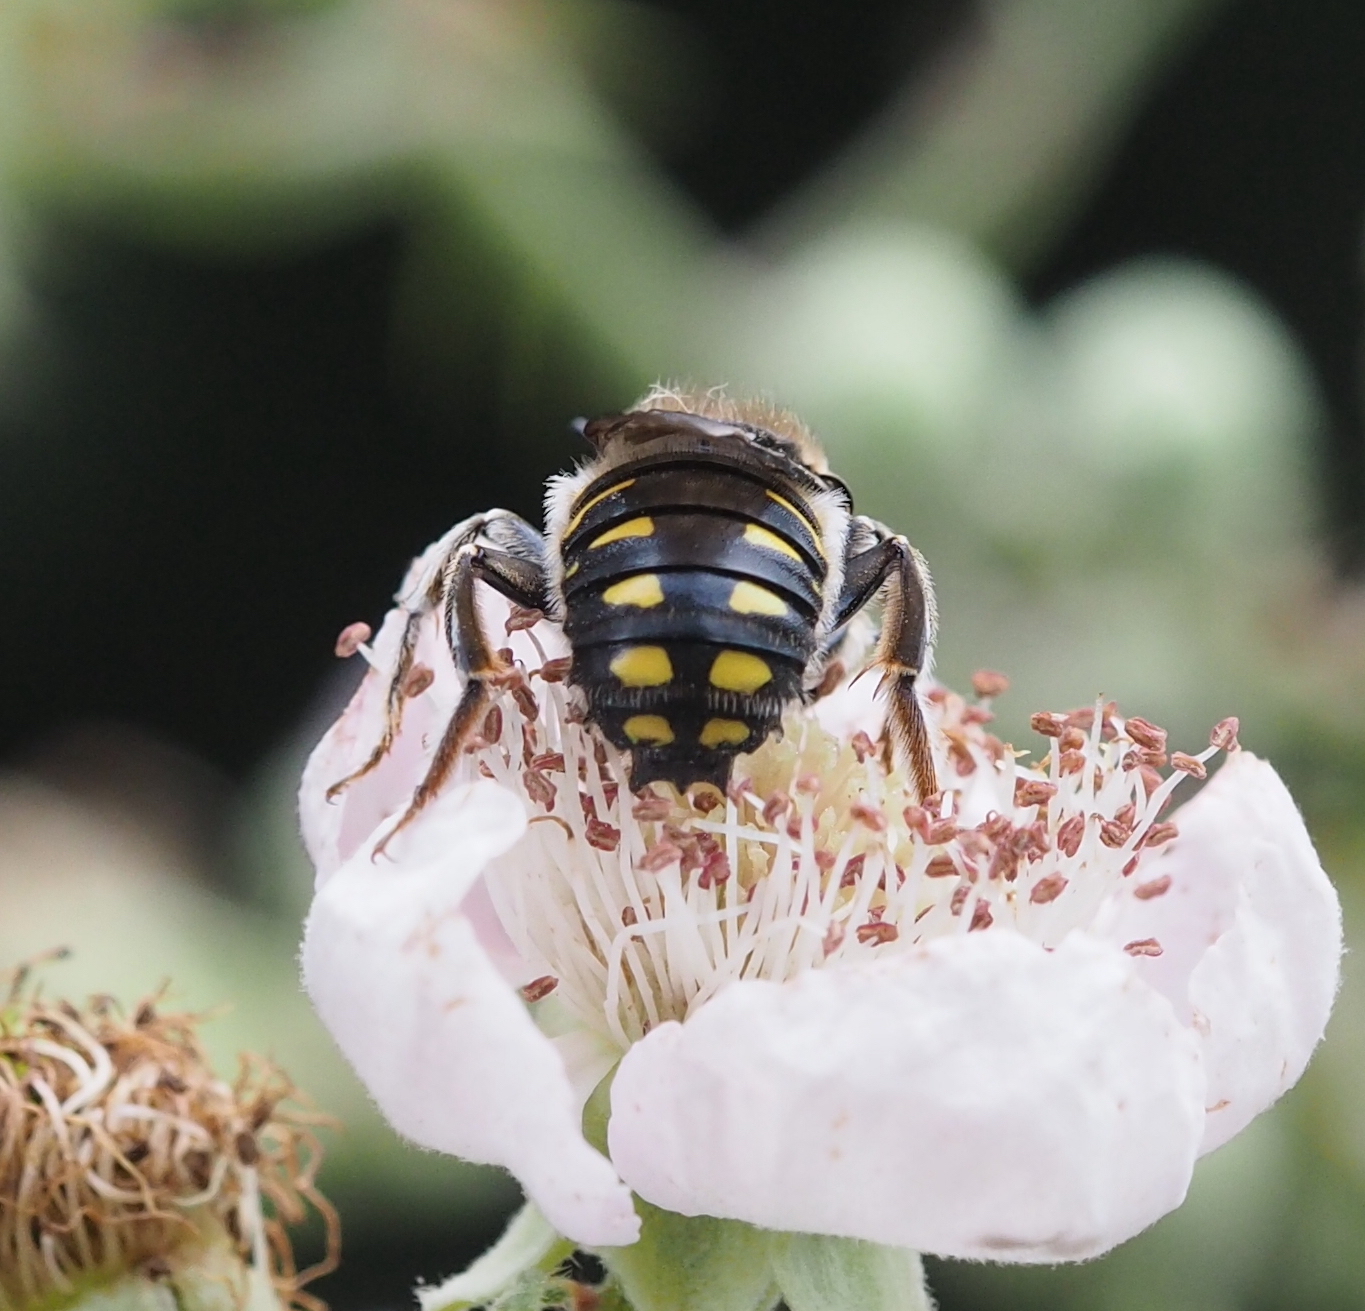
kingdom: Animalia
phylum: Arthropoda
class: Insecta
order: Hymenoptera
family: Megachilidae
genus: Anthidium
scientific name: Anthidium septemspinosum
